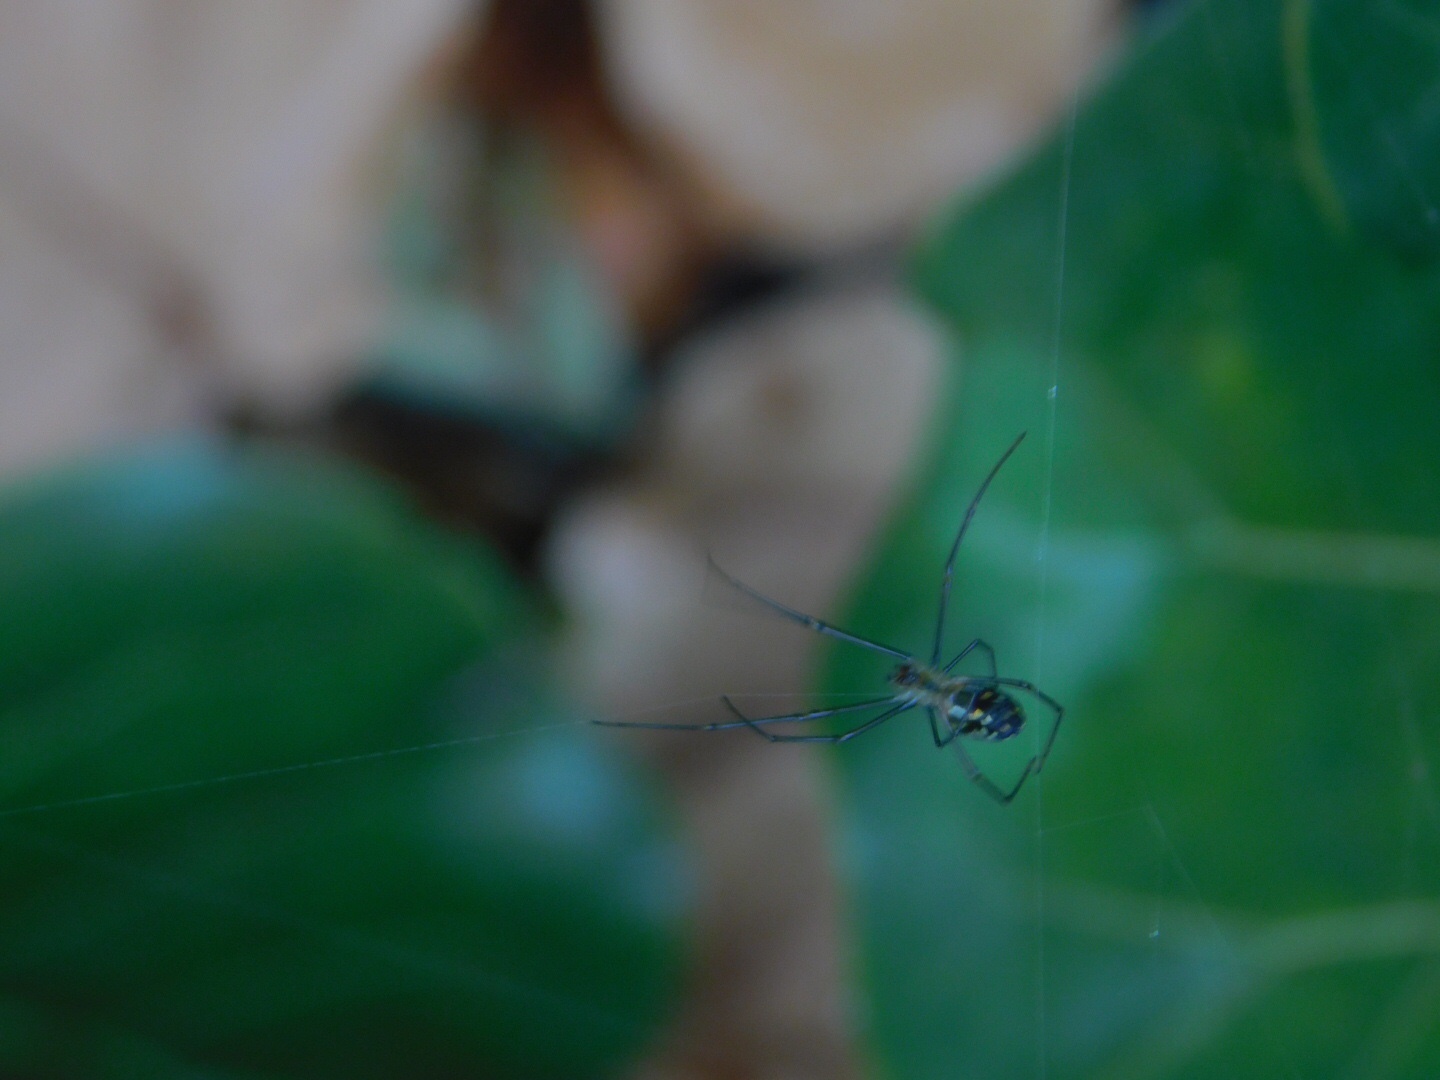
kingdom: Animalia
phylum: Arthropoda
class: Arachnida
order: Araneae
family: Tetragnathidae
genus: Leucauge
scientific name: Leucauge argyra
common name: Longjawed orb weavers
